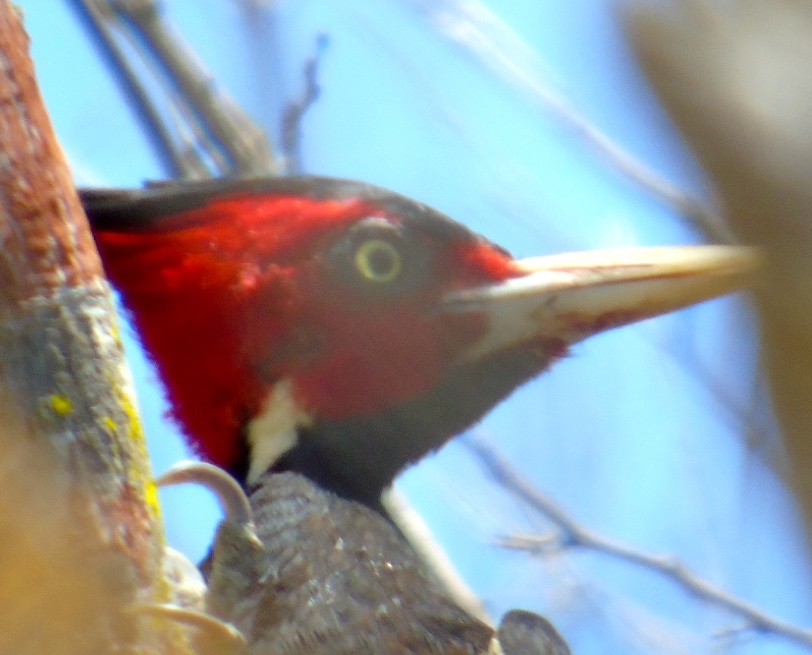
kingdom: Animalia
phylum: Chordata
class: Aves
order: Piciformes
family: Picidae
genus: Campephilus
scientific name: Campephilus guatemalensis
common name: Pale-billed woodpecker
